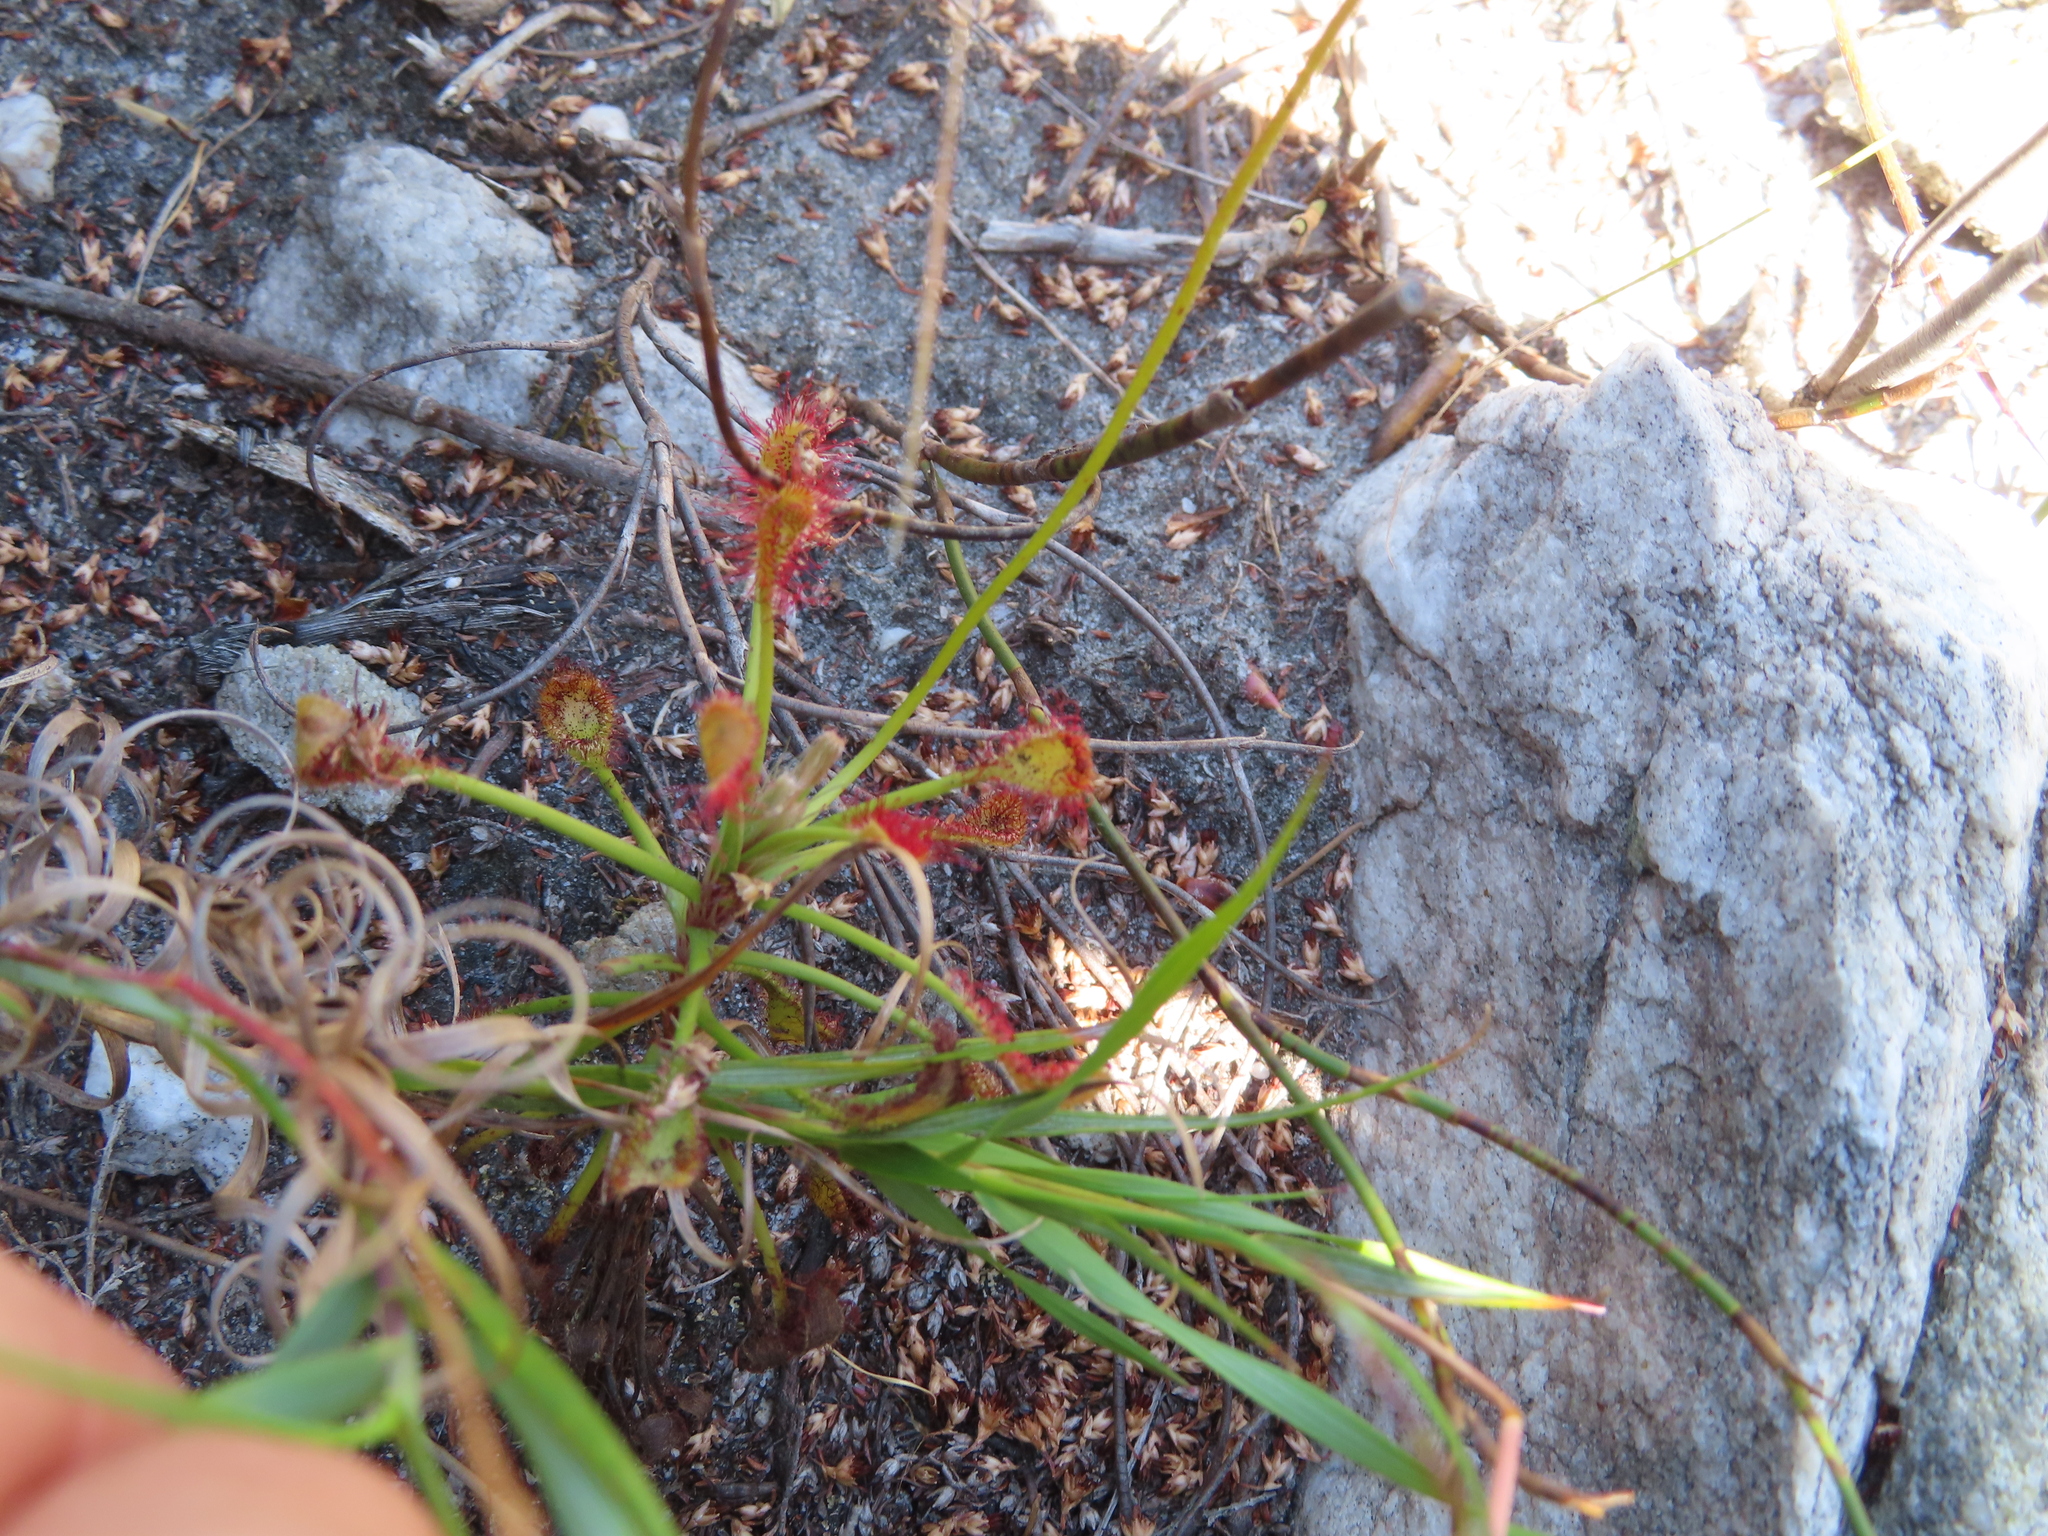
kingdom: Plantae
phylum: Tracheophyta
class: Magnoliopsida
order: Caryophyllales
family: Droseraceae
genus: Drosera
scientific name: Drosera glabripes
